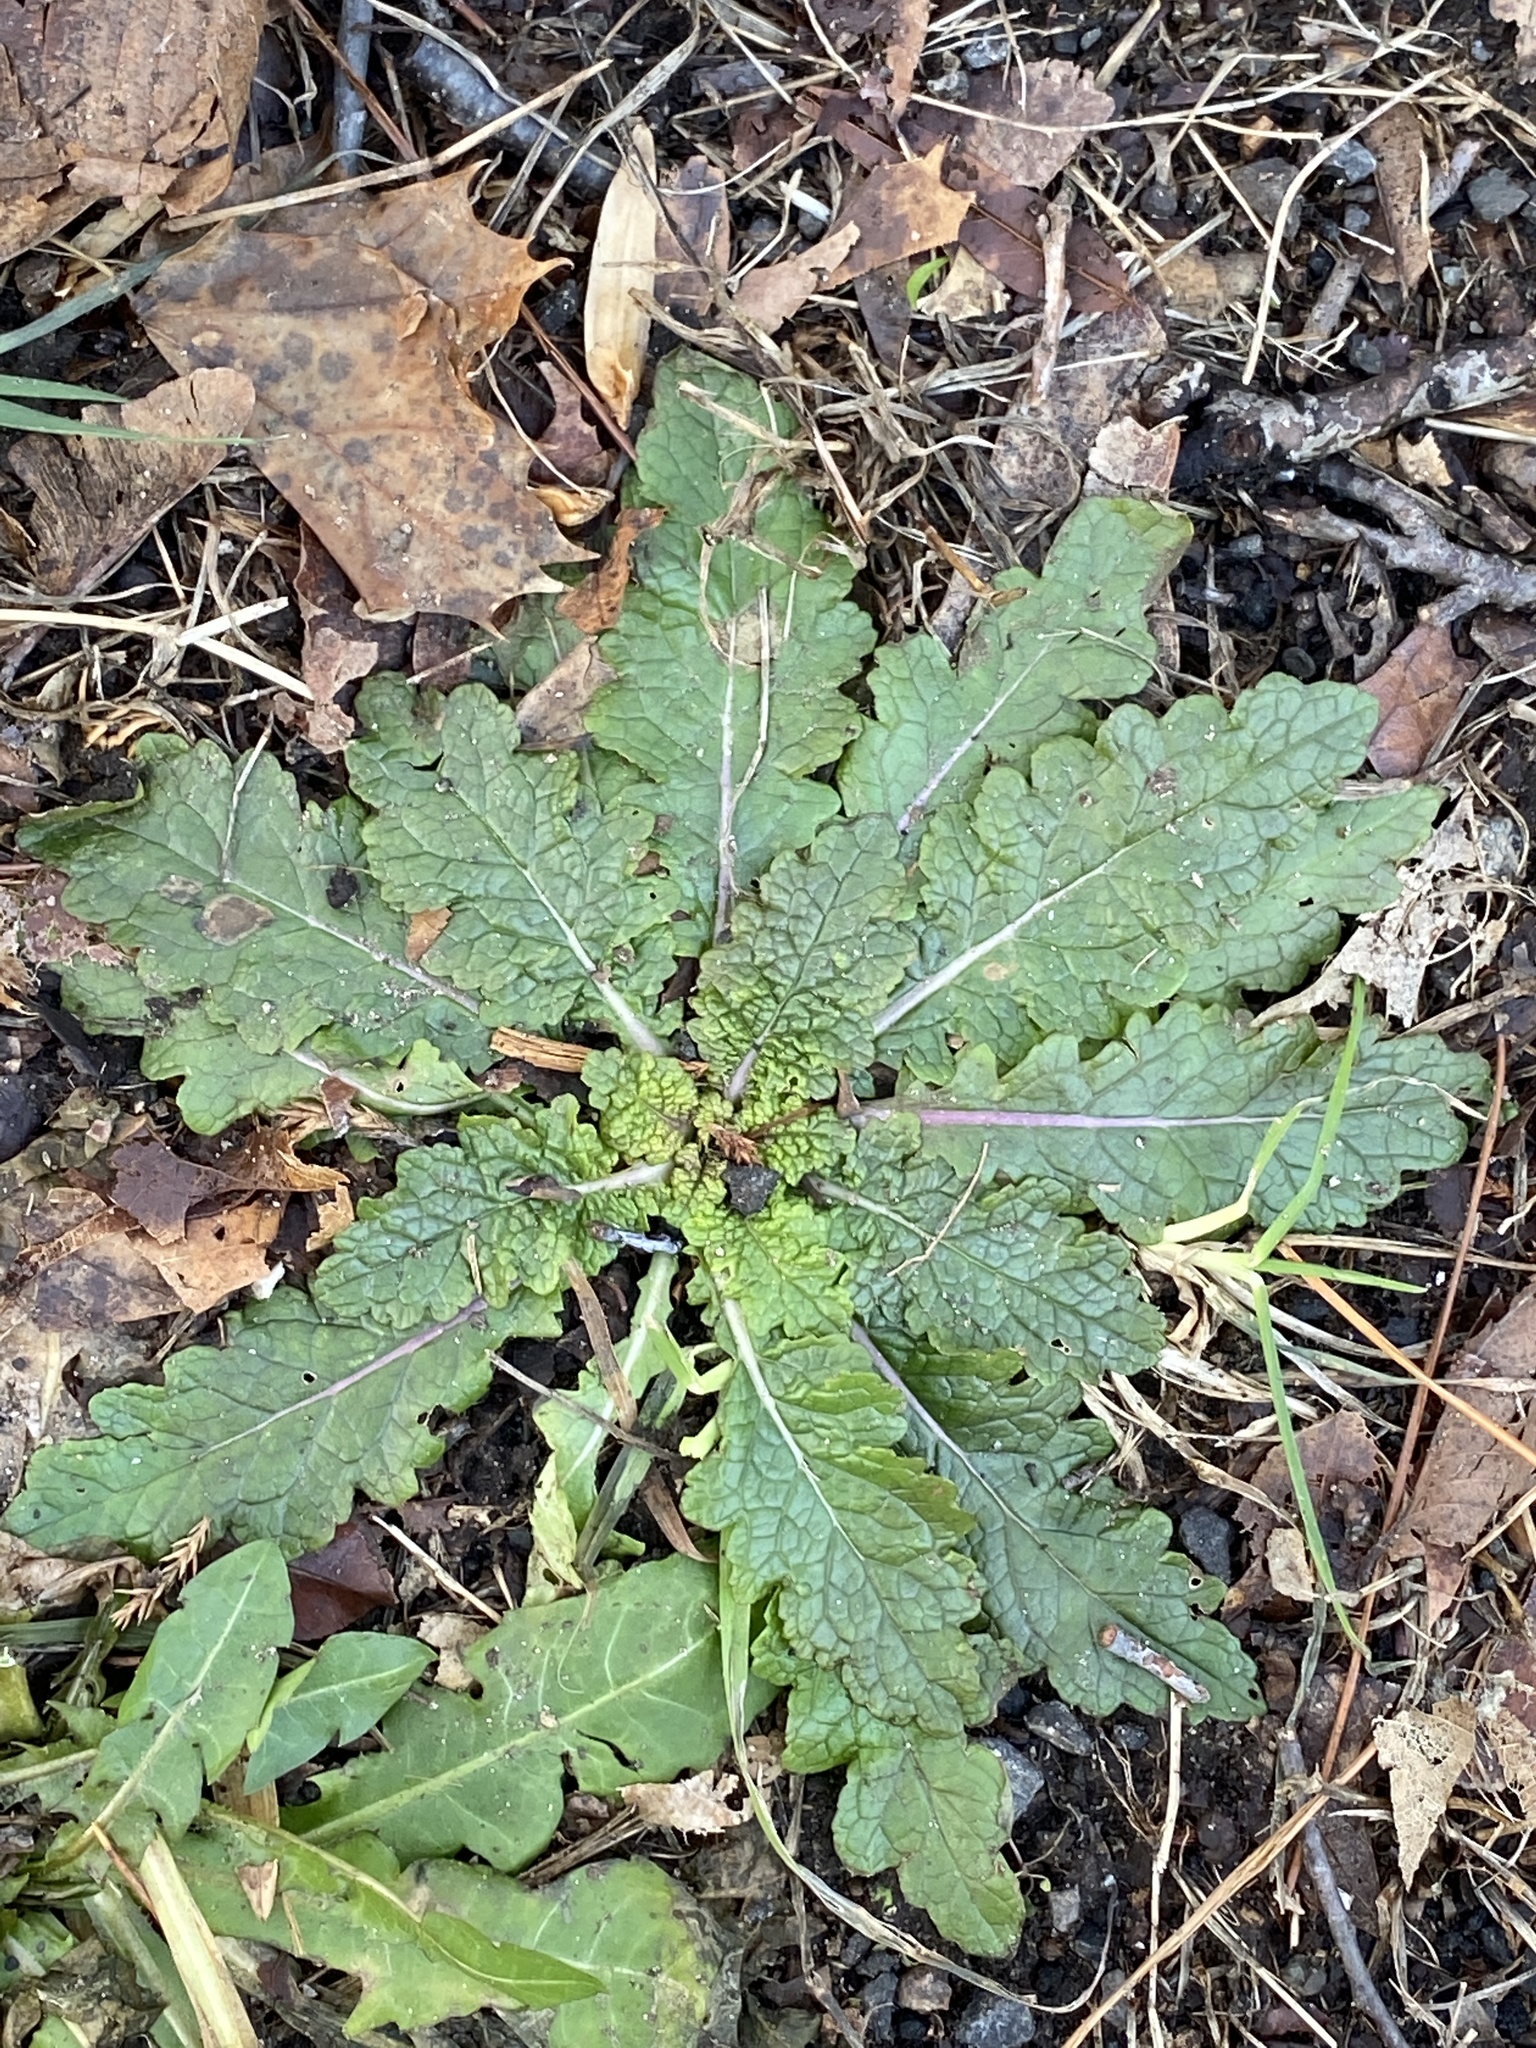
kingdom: Plantae
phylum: Tracheophyta
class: Magnoliopsida
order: Lamiales
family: Scrophulariaceae
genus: Verbascum
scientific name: Verbascum blattaria
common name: Moth mullein
